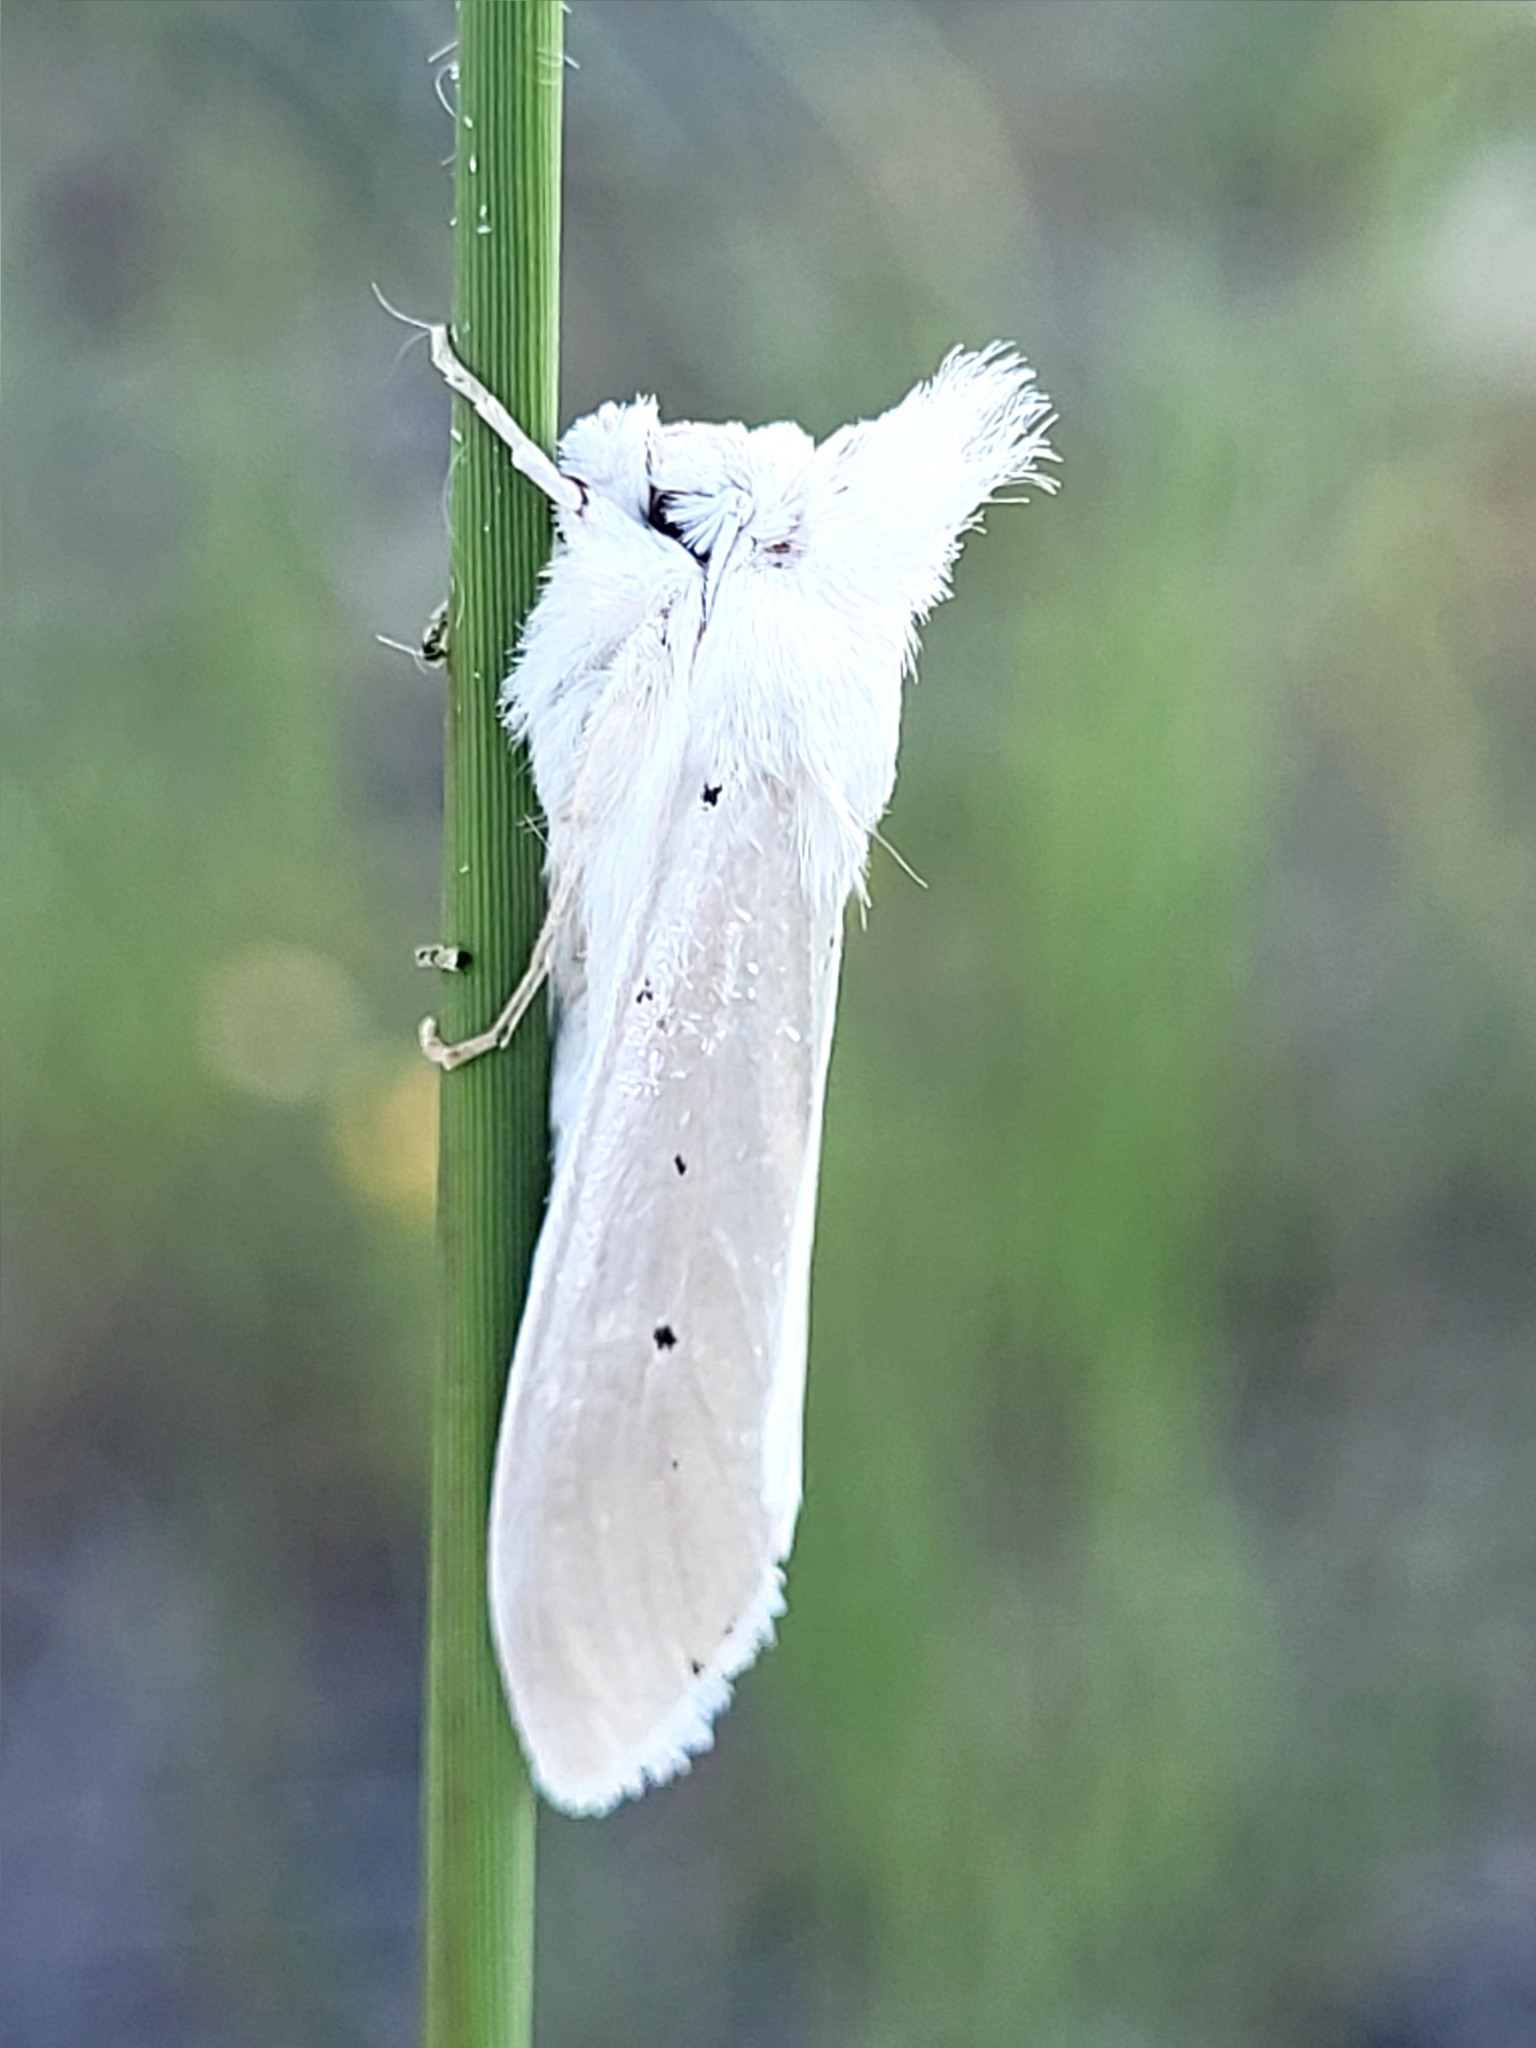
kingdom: Animalia
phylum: Arthropoda
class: Insecta
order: Lepidoptera
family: Noctuidae
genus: Cucullia
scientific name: Cucullia luna
